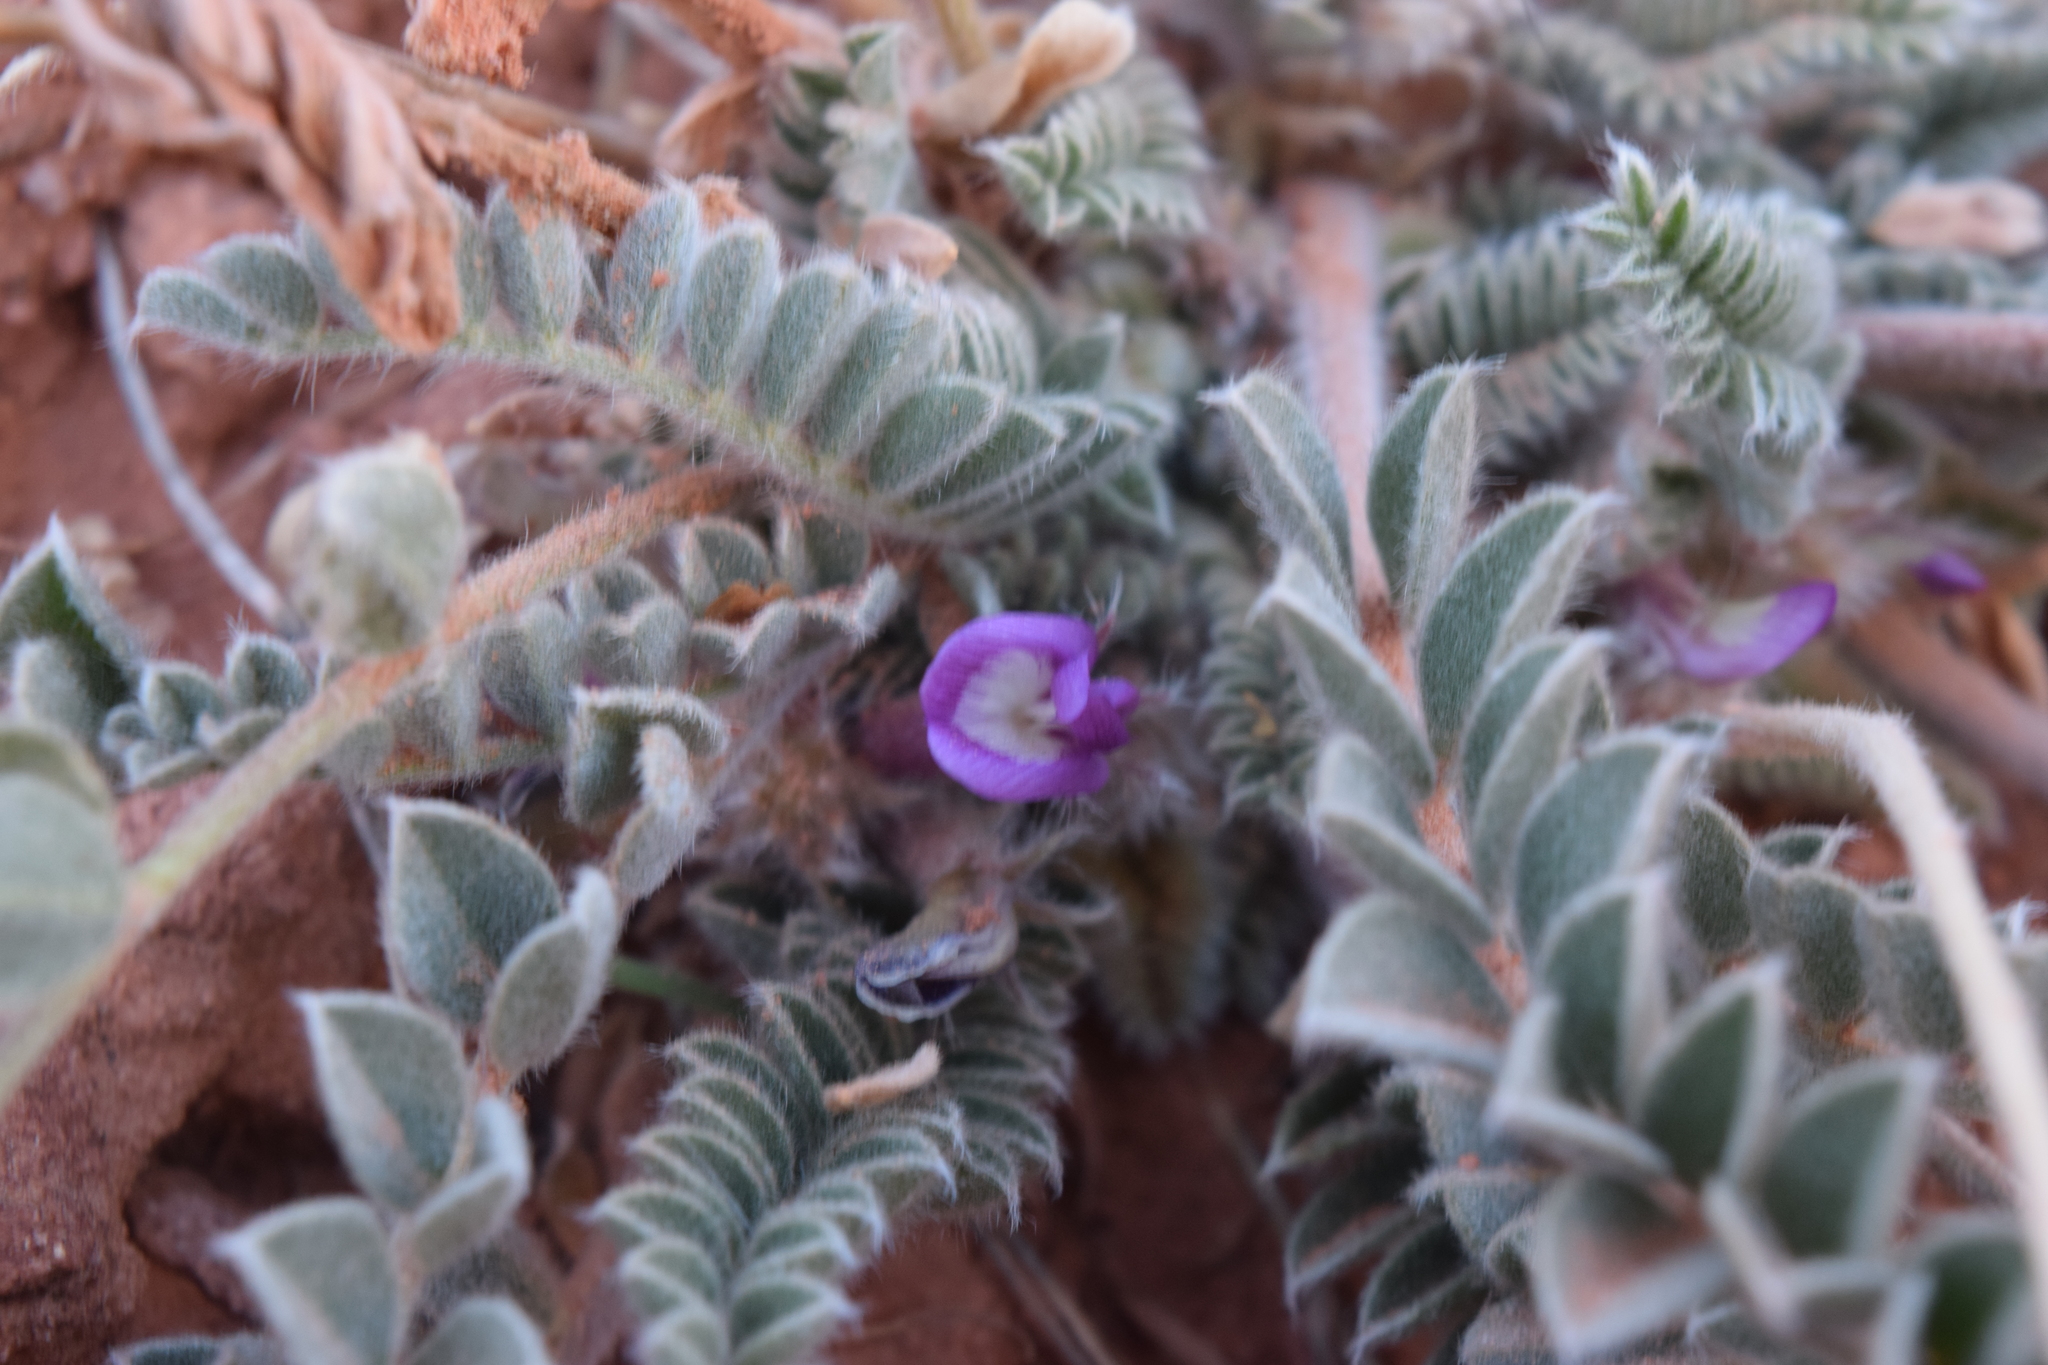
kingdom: Plantae
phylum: Tracheophyta
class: Magnoliopsida
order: Fabales
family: Fabaceae
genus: Astragalus
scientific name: Astragalus mollissimus
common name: Woolly locoweed
